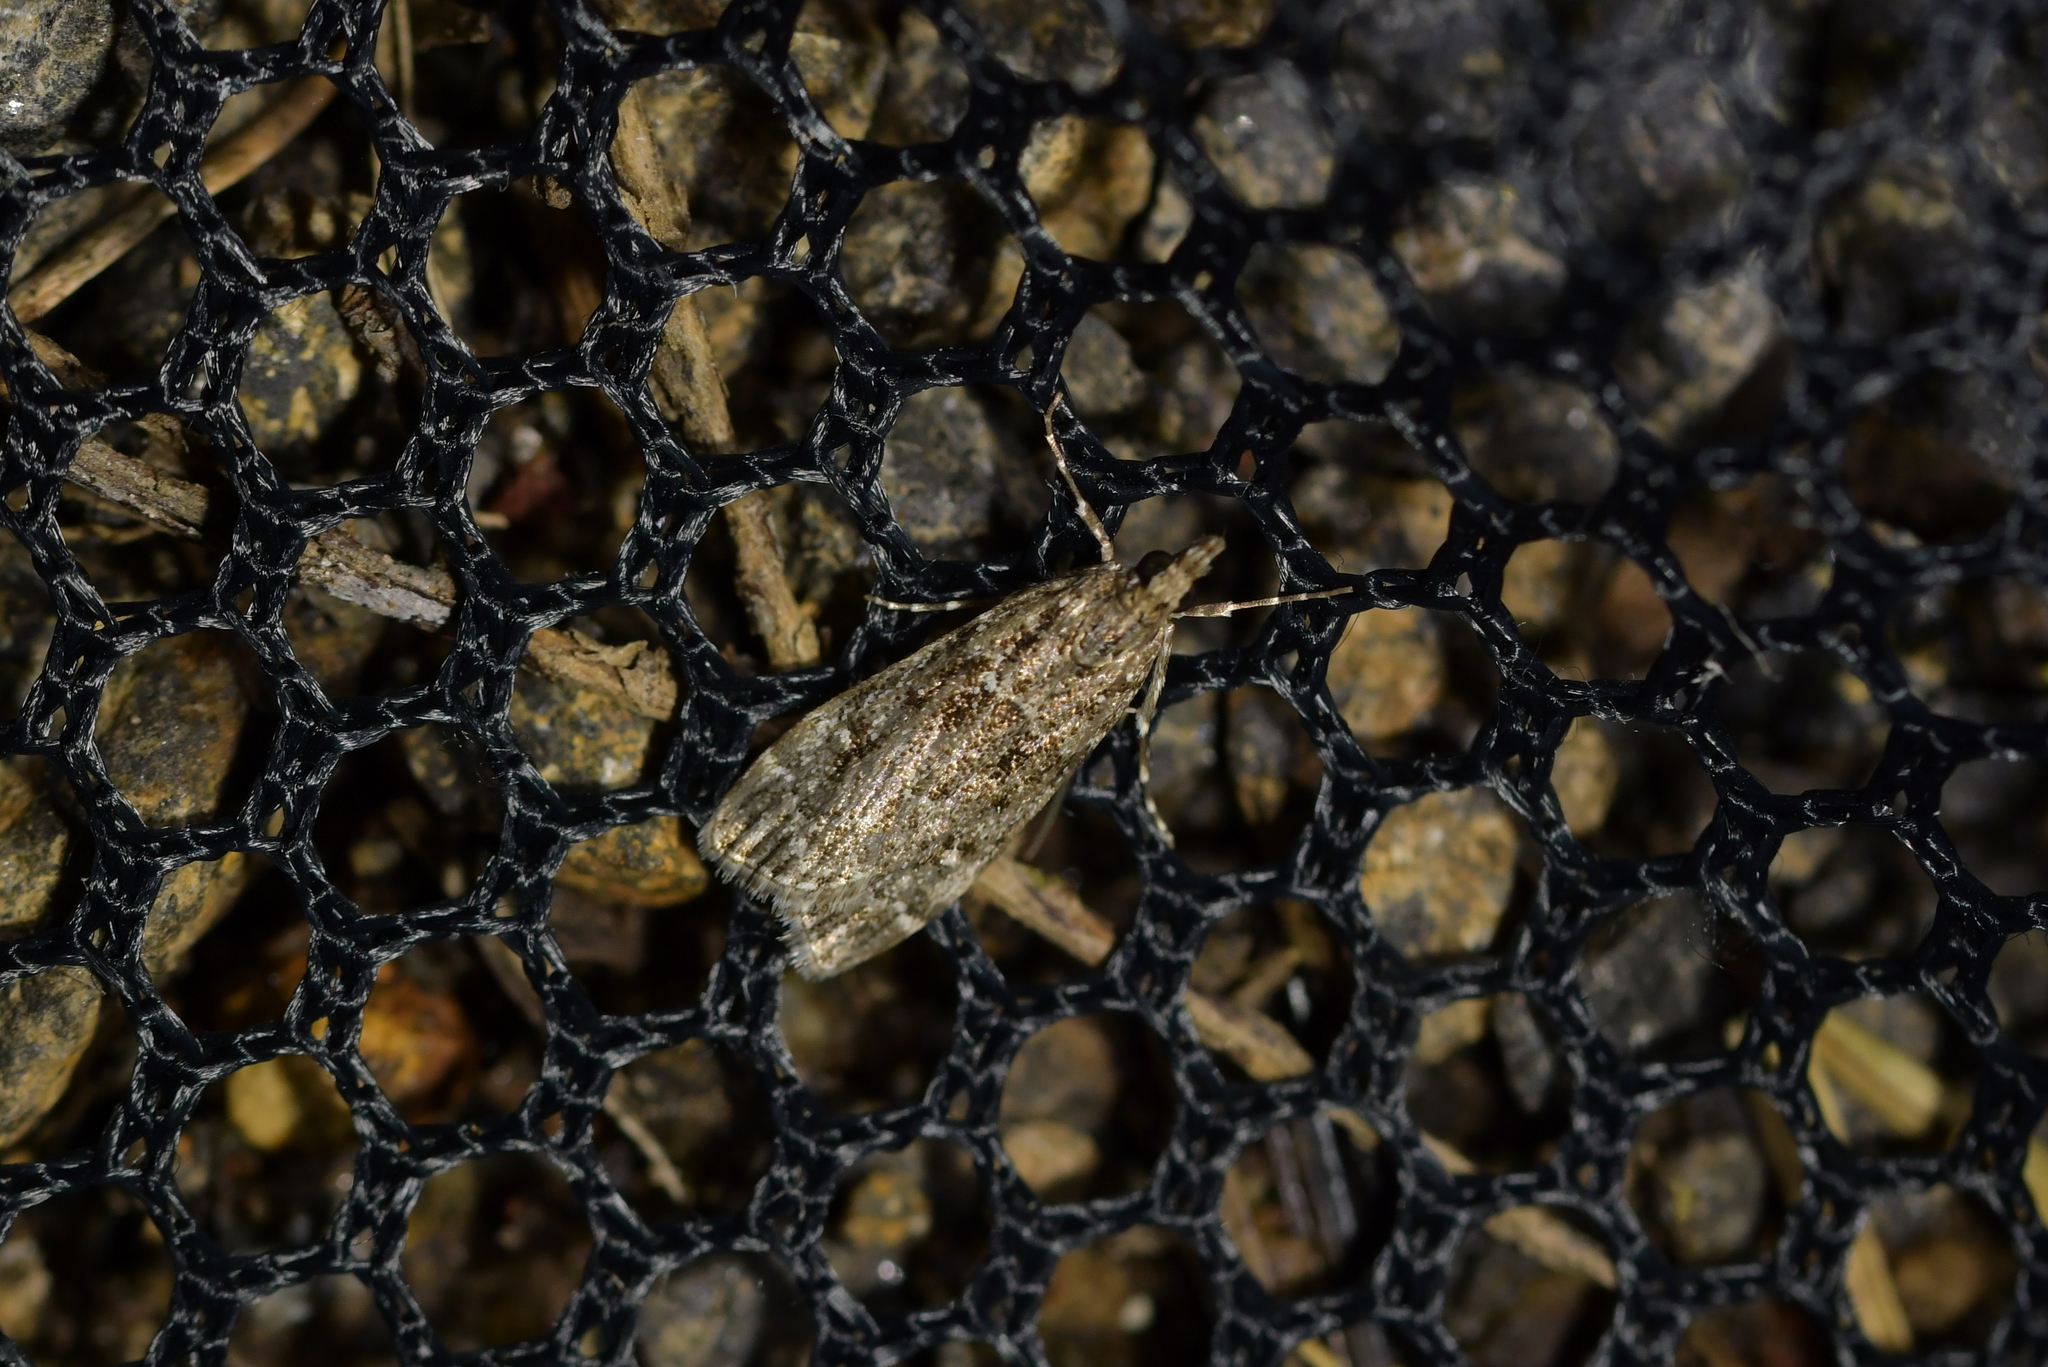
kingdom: Animalia
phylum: Arthropoda
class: Insecta
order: Lepidoptera
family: Crambidae
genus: Eudonia
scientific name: Eudonia philerga
